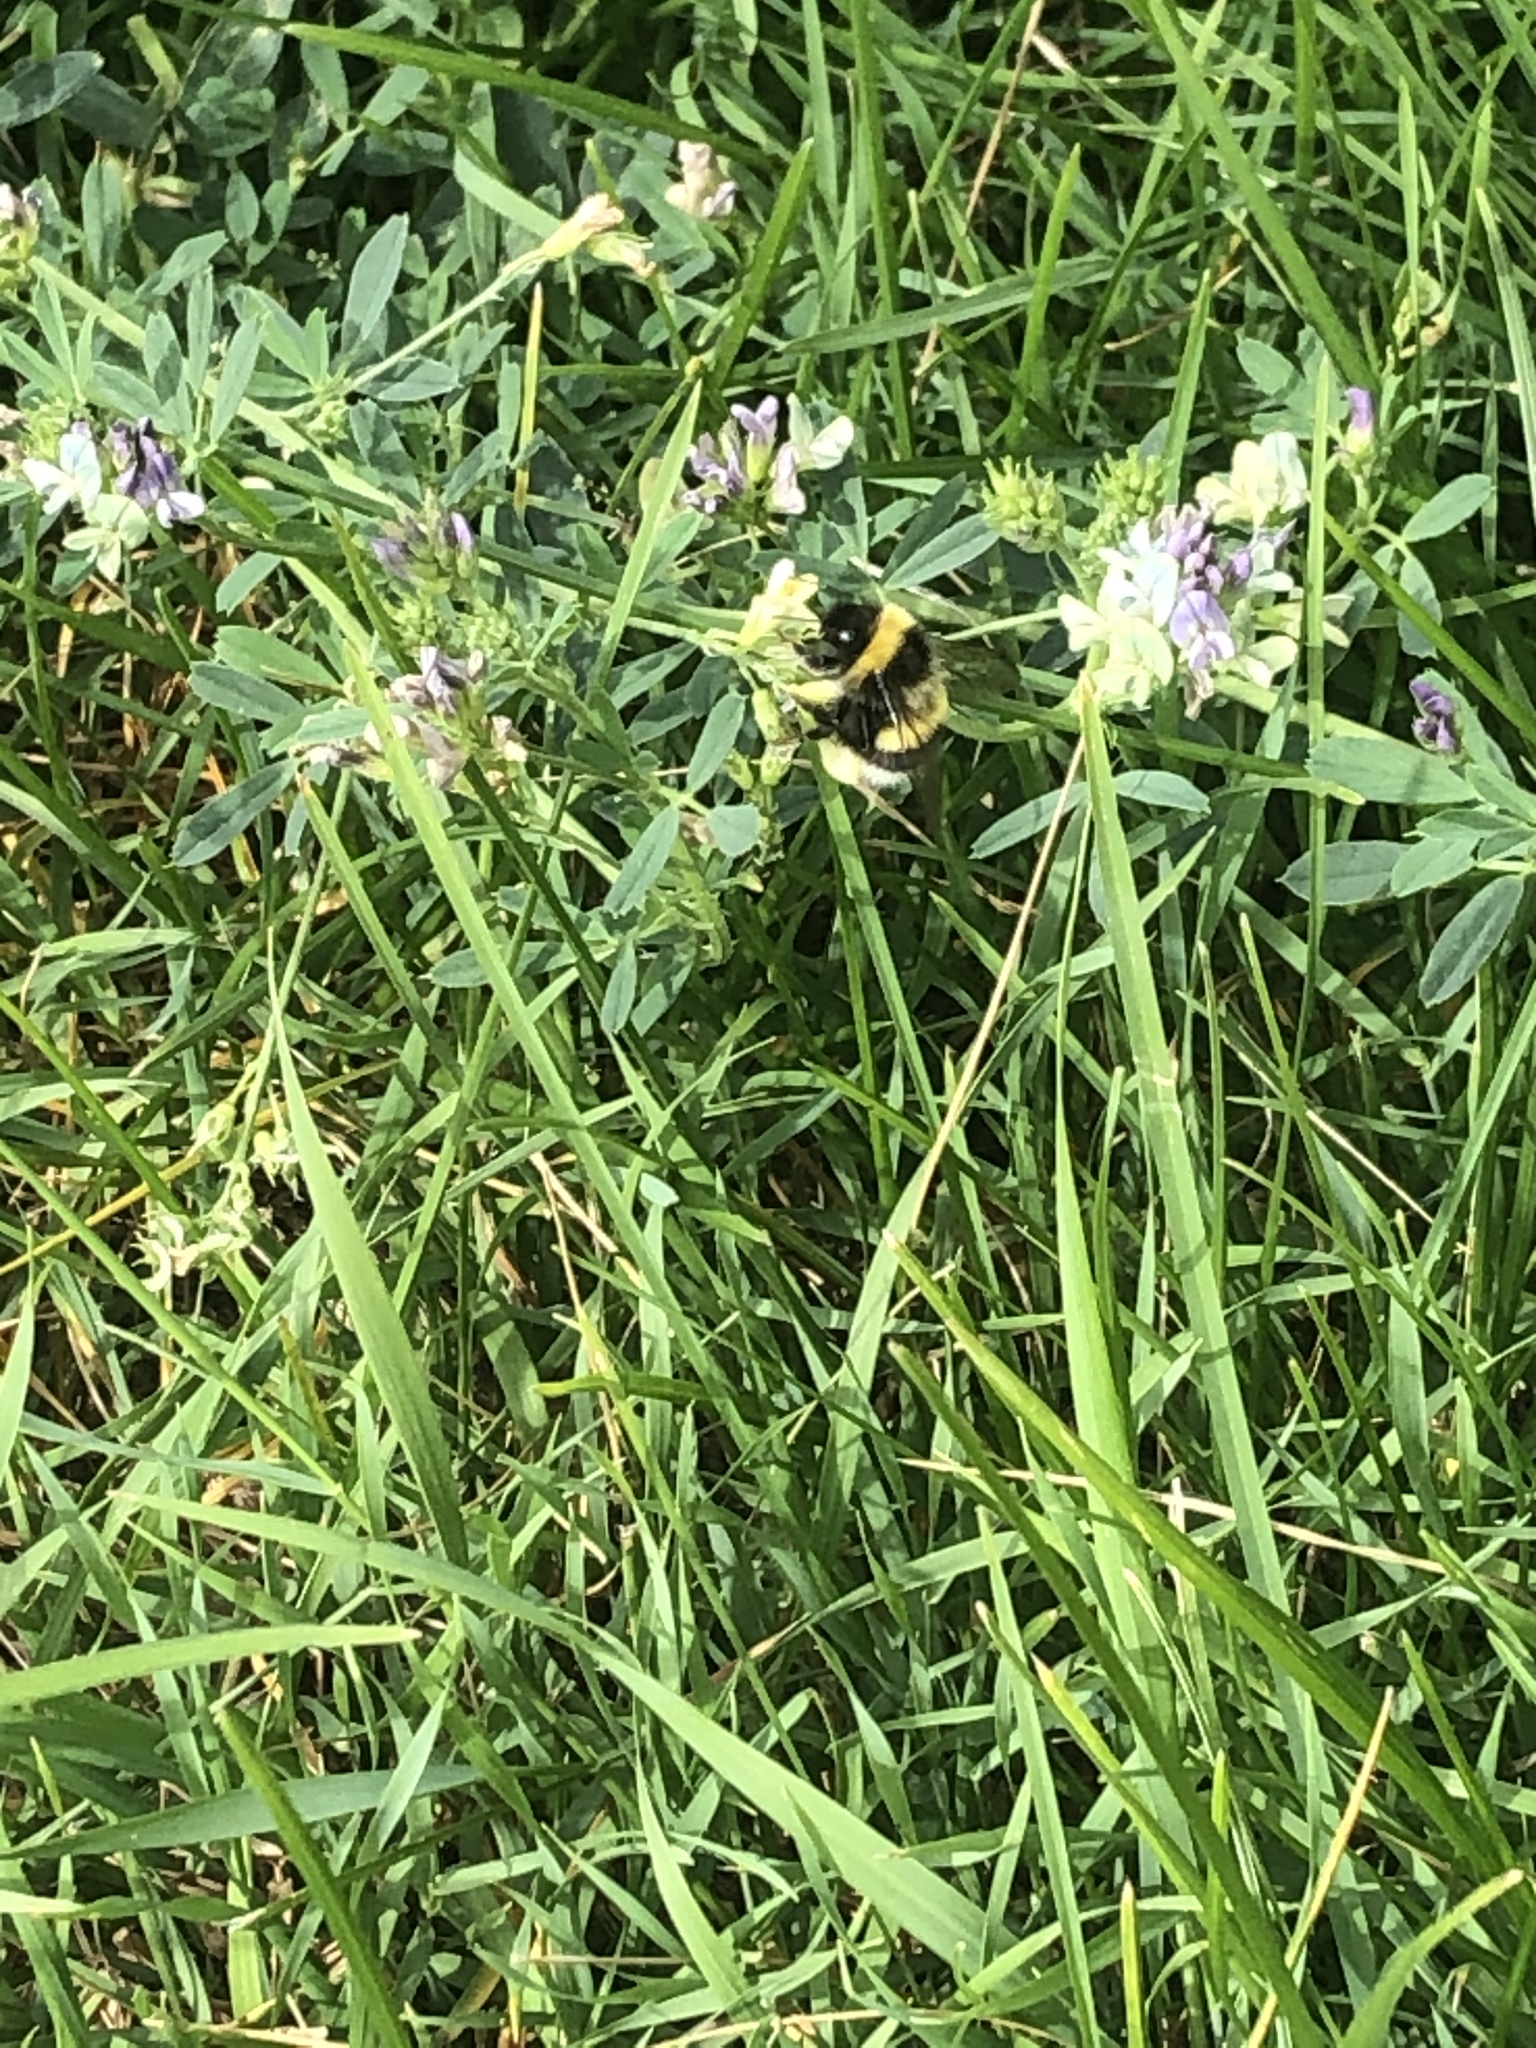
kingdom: Animalia
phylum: Arthropoda
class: Insecta
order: Hymenoptera
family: Apidae
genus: Bombus
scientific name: Bombus cryptarum
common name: Cryptic bumblebee
